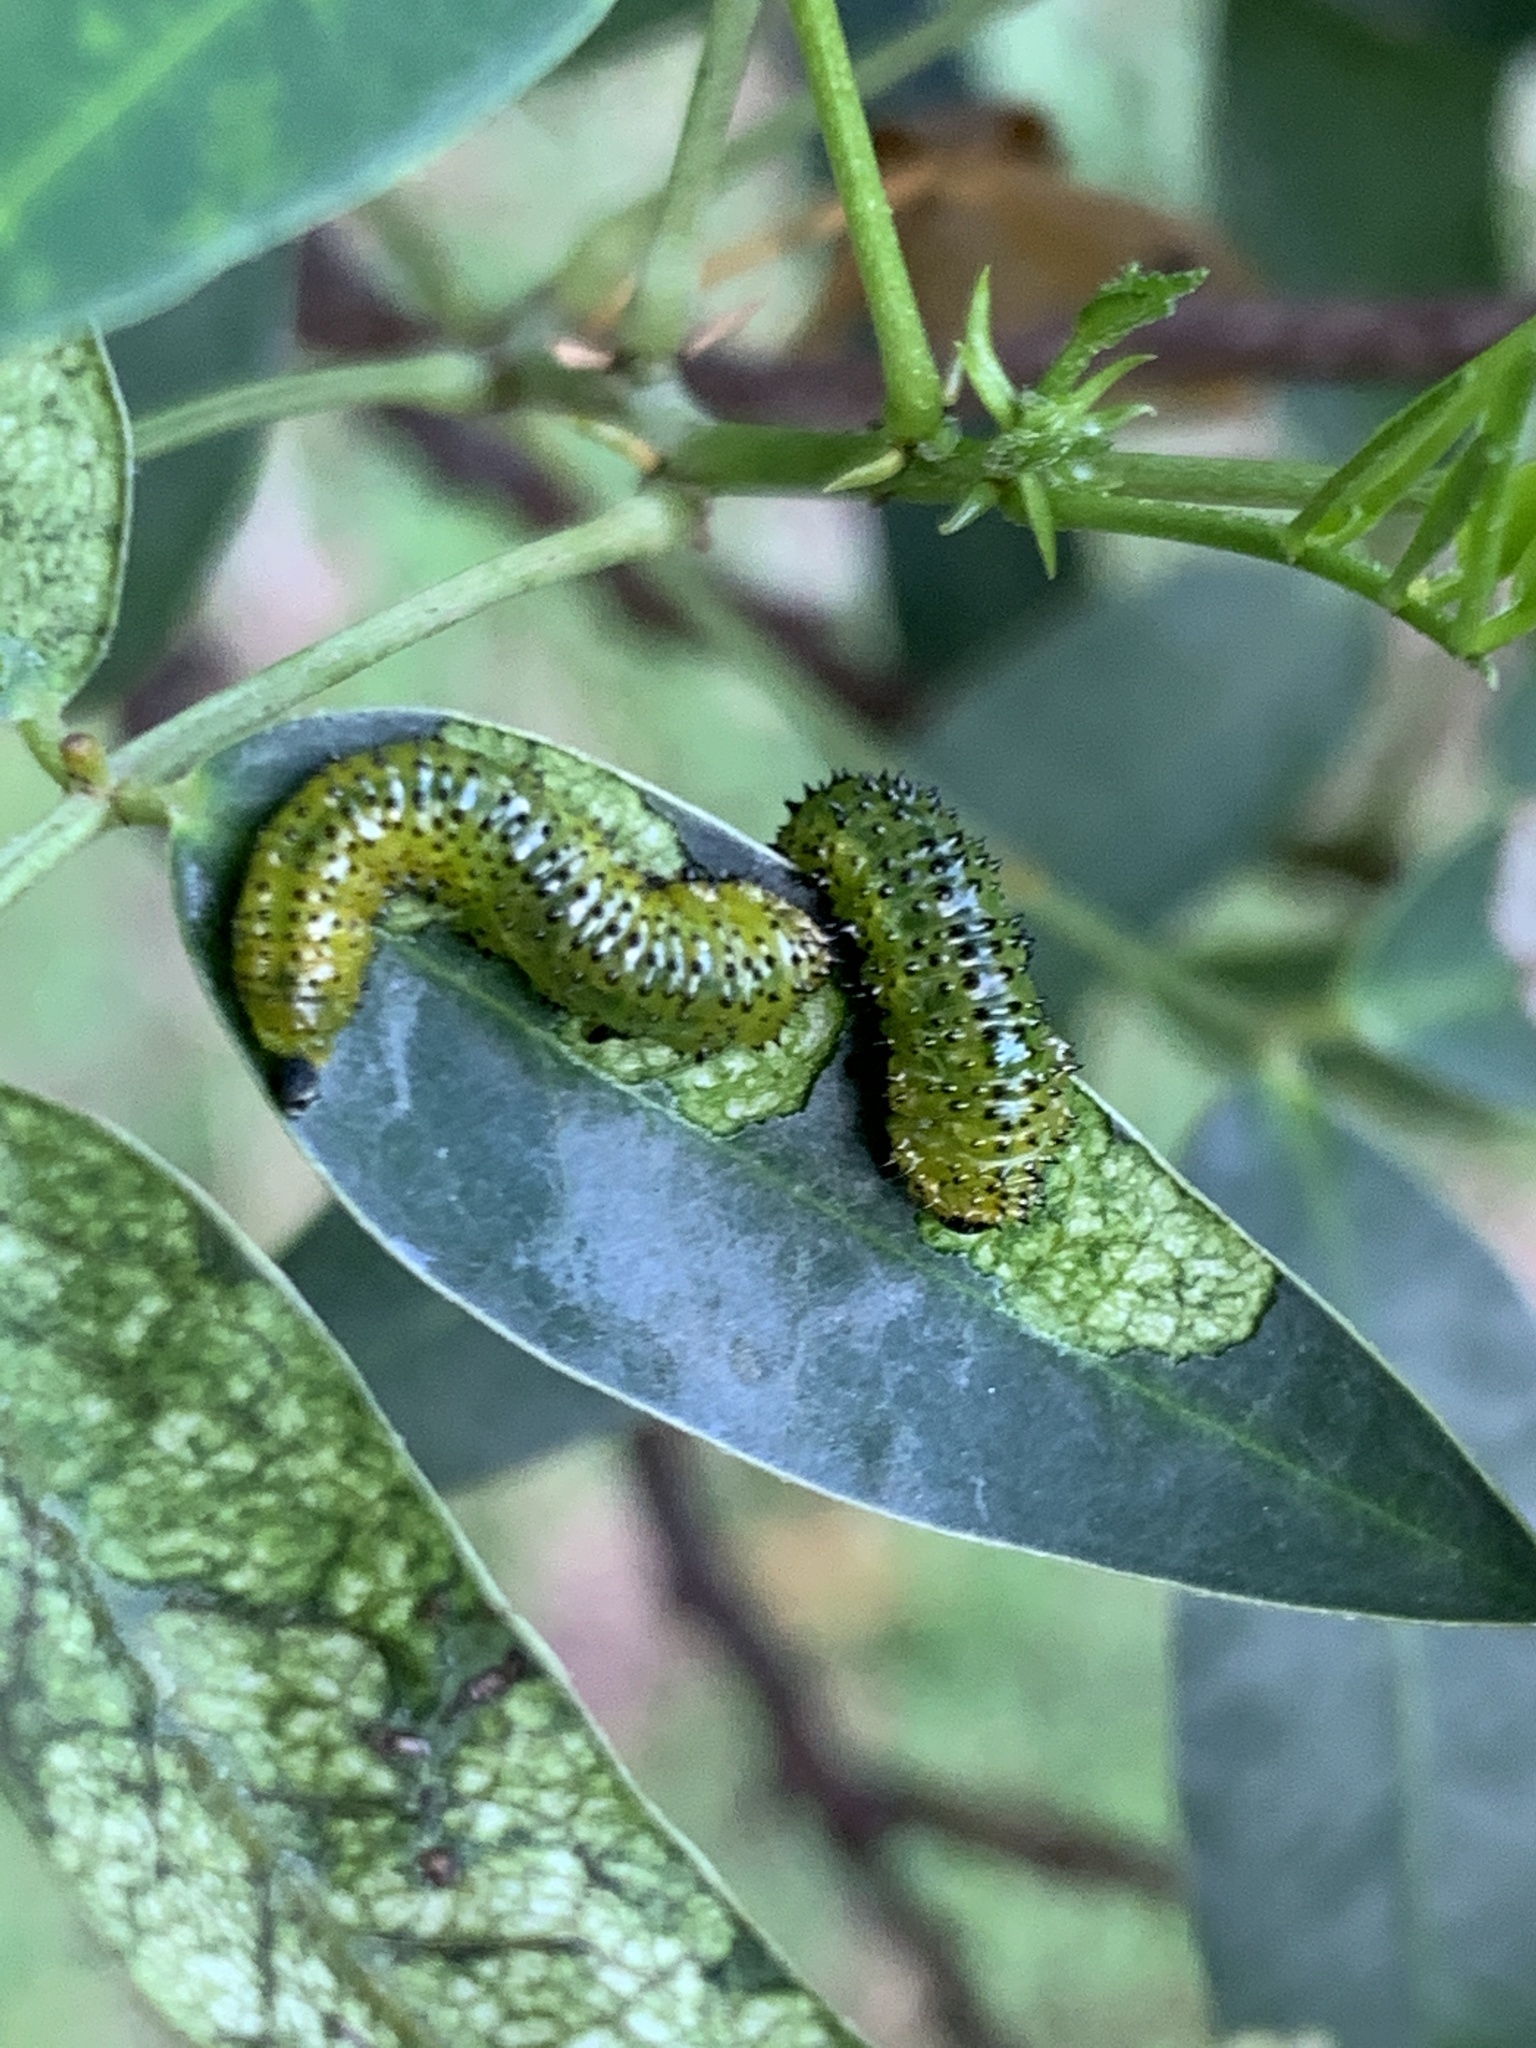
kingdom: Animalia
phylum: Arthropoda
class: Insecta
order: Hymenoptera
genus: Adurgoa
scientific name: Adurgoa
